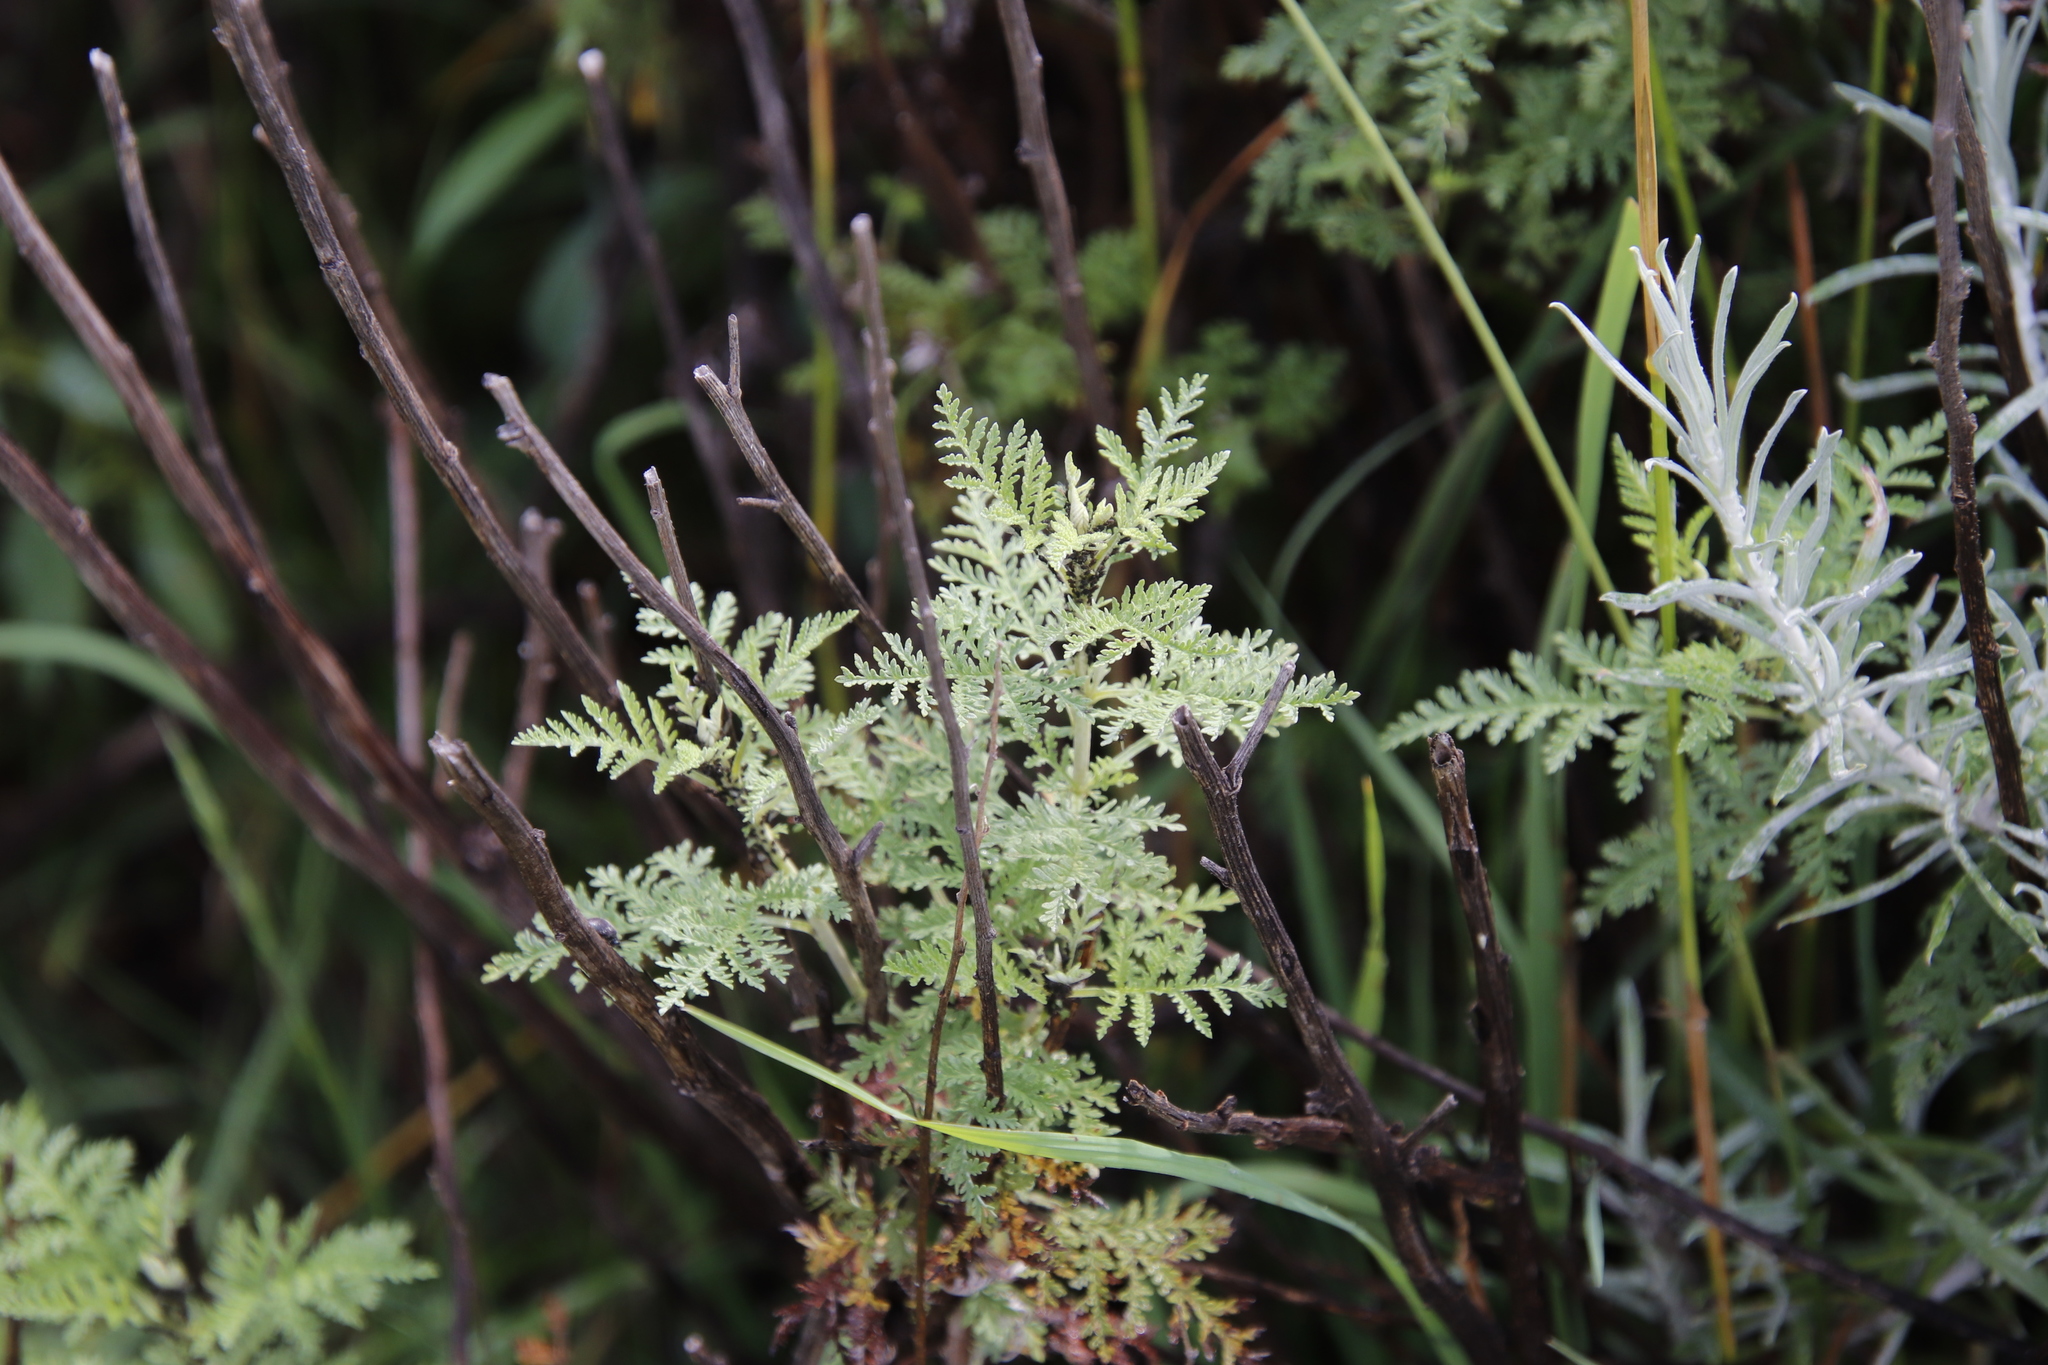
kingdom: Plantae
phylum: Tracheophyta
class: Magnoliopsida
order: Asterales
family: Asteraceae
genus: Artemisia
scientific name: Artemisia afra
